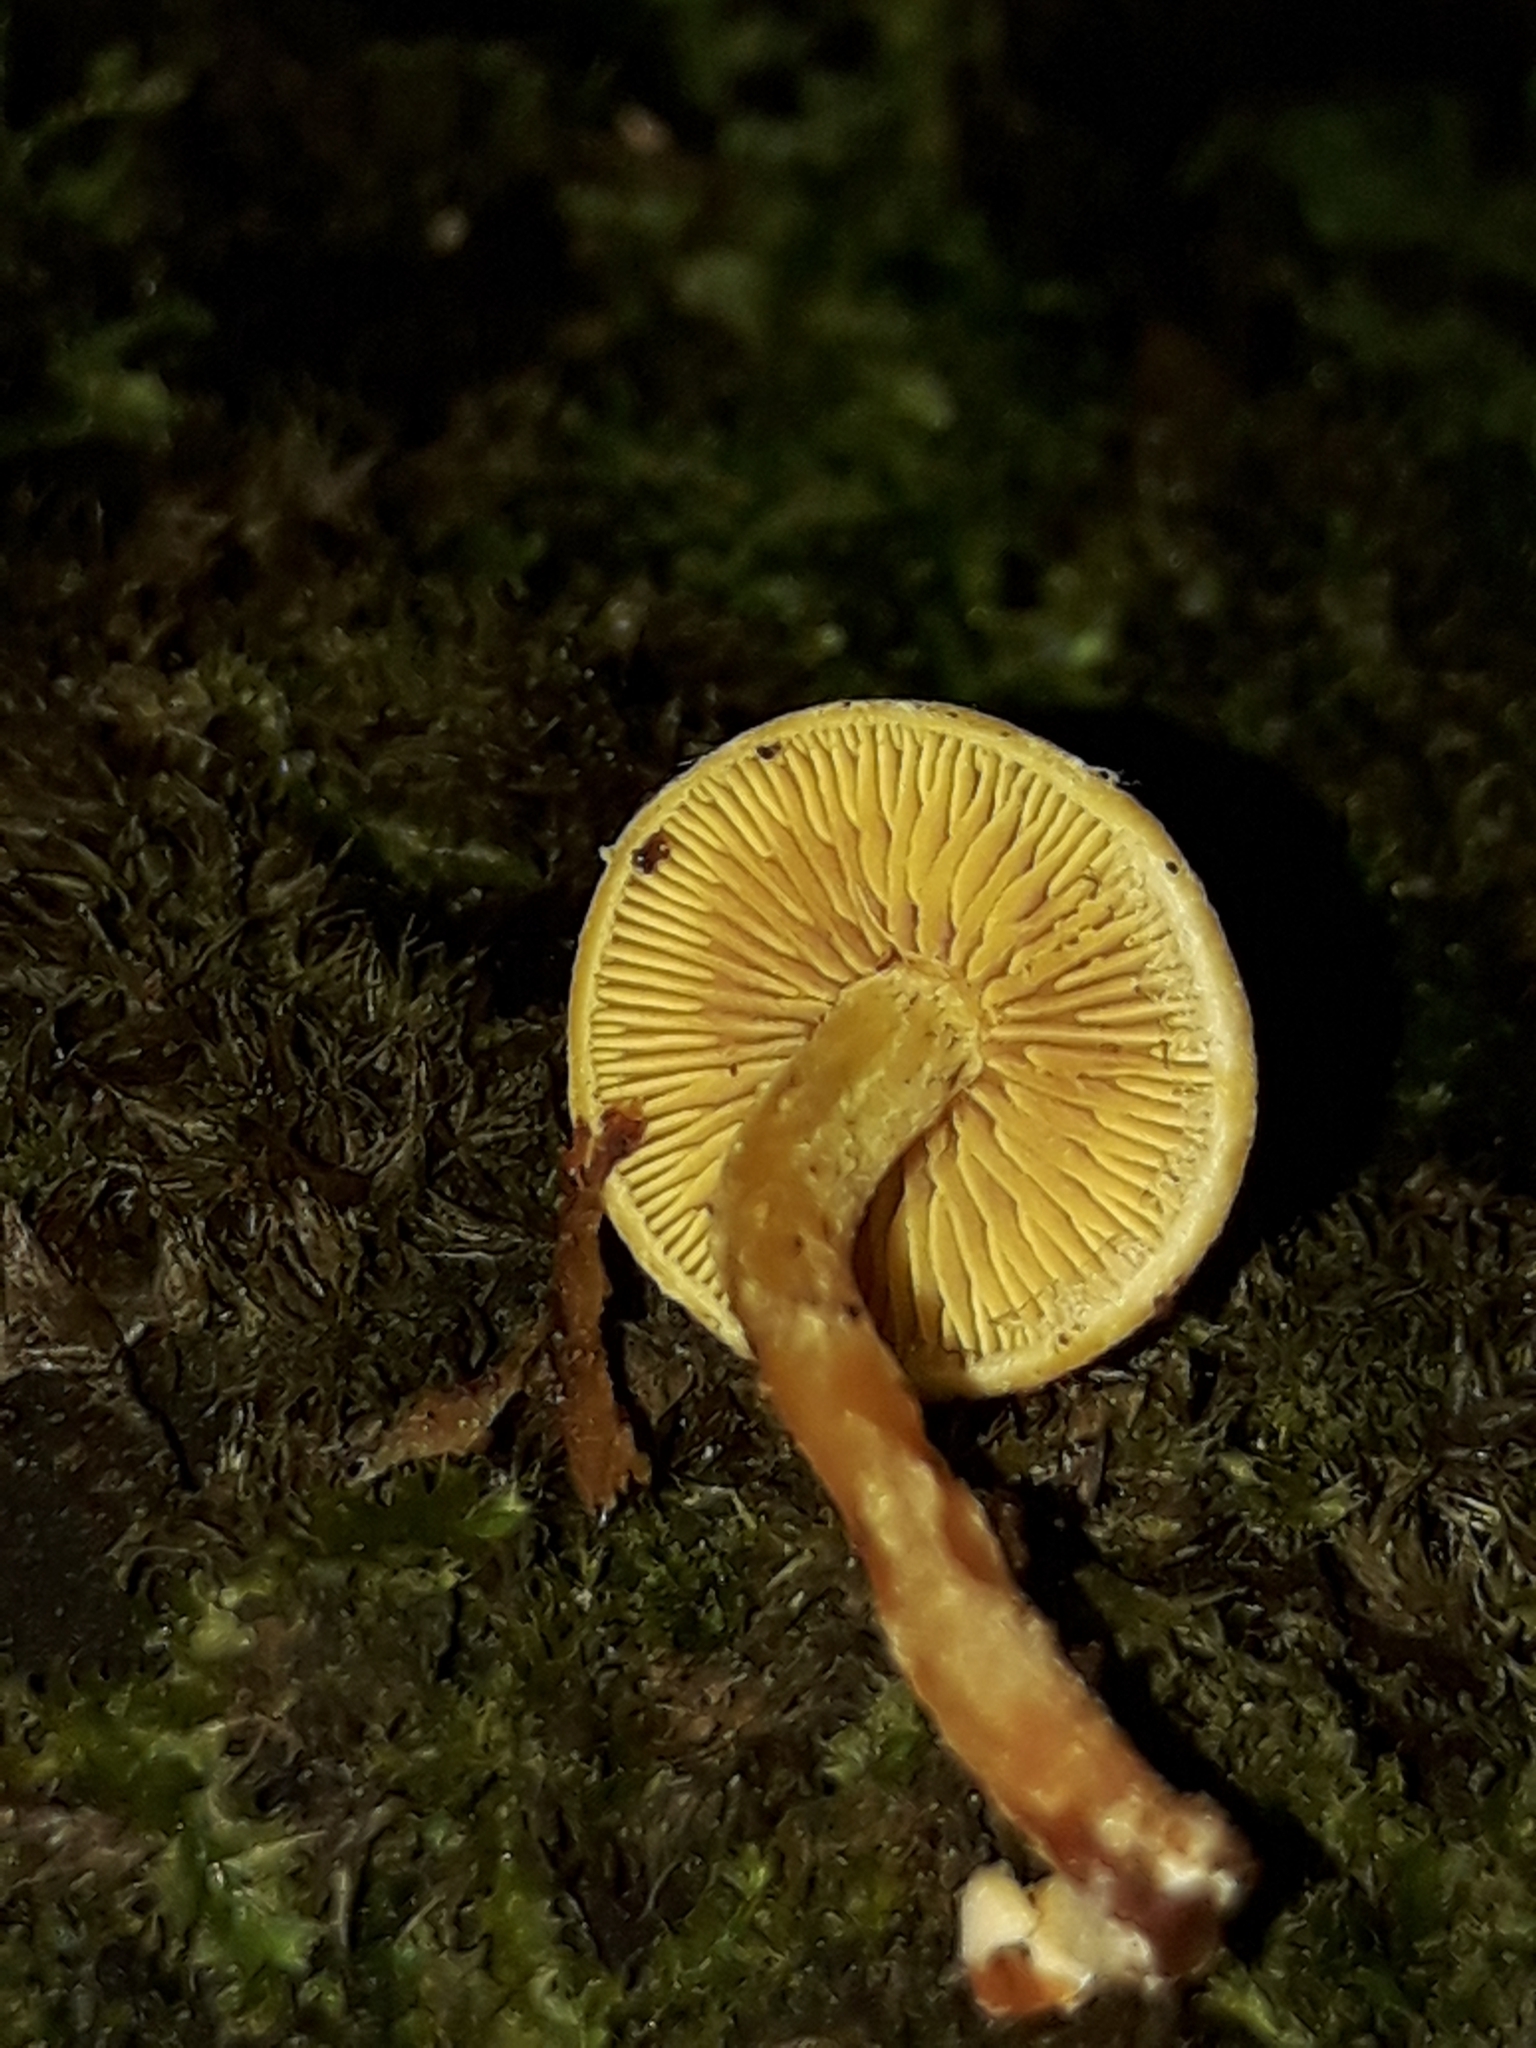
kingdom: Fungi
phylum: Basidiomycota
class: Agaricomycetes
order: Agaricales
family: Strophariaceae
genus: Hypholoma
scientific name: Hypholoma acutum
